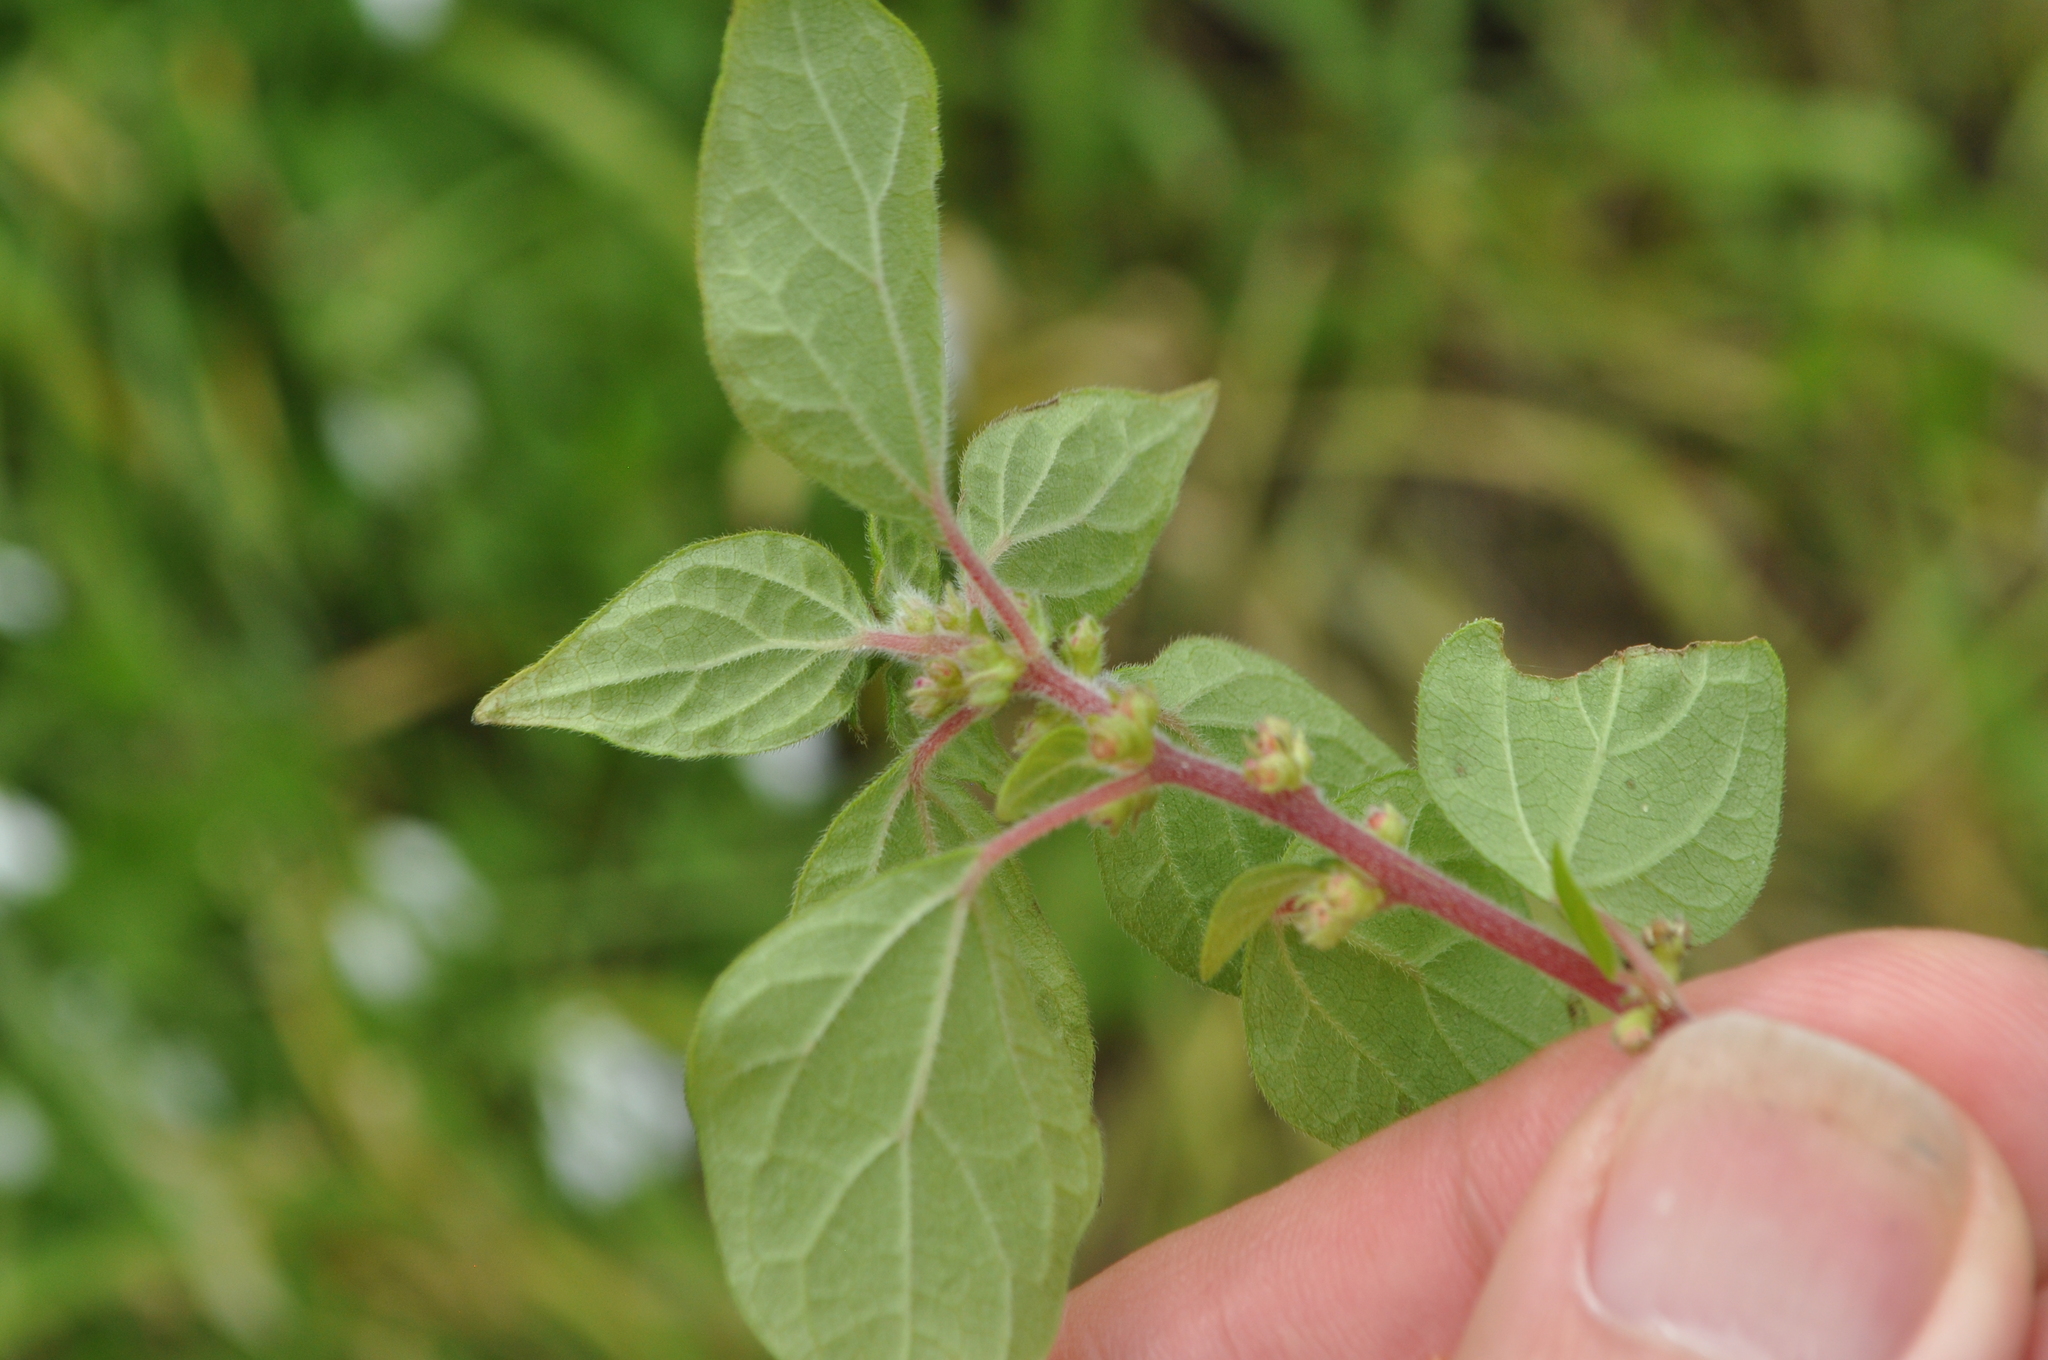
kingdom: Plantae
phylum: Tracheophyta
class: Magnoliopsida
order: Rosales
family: Urticaceae
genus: Parietaria
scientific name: Parietaria judaica
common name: Pellitory-of-the-wall
